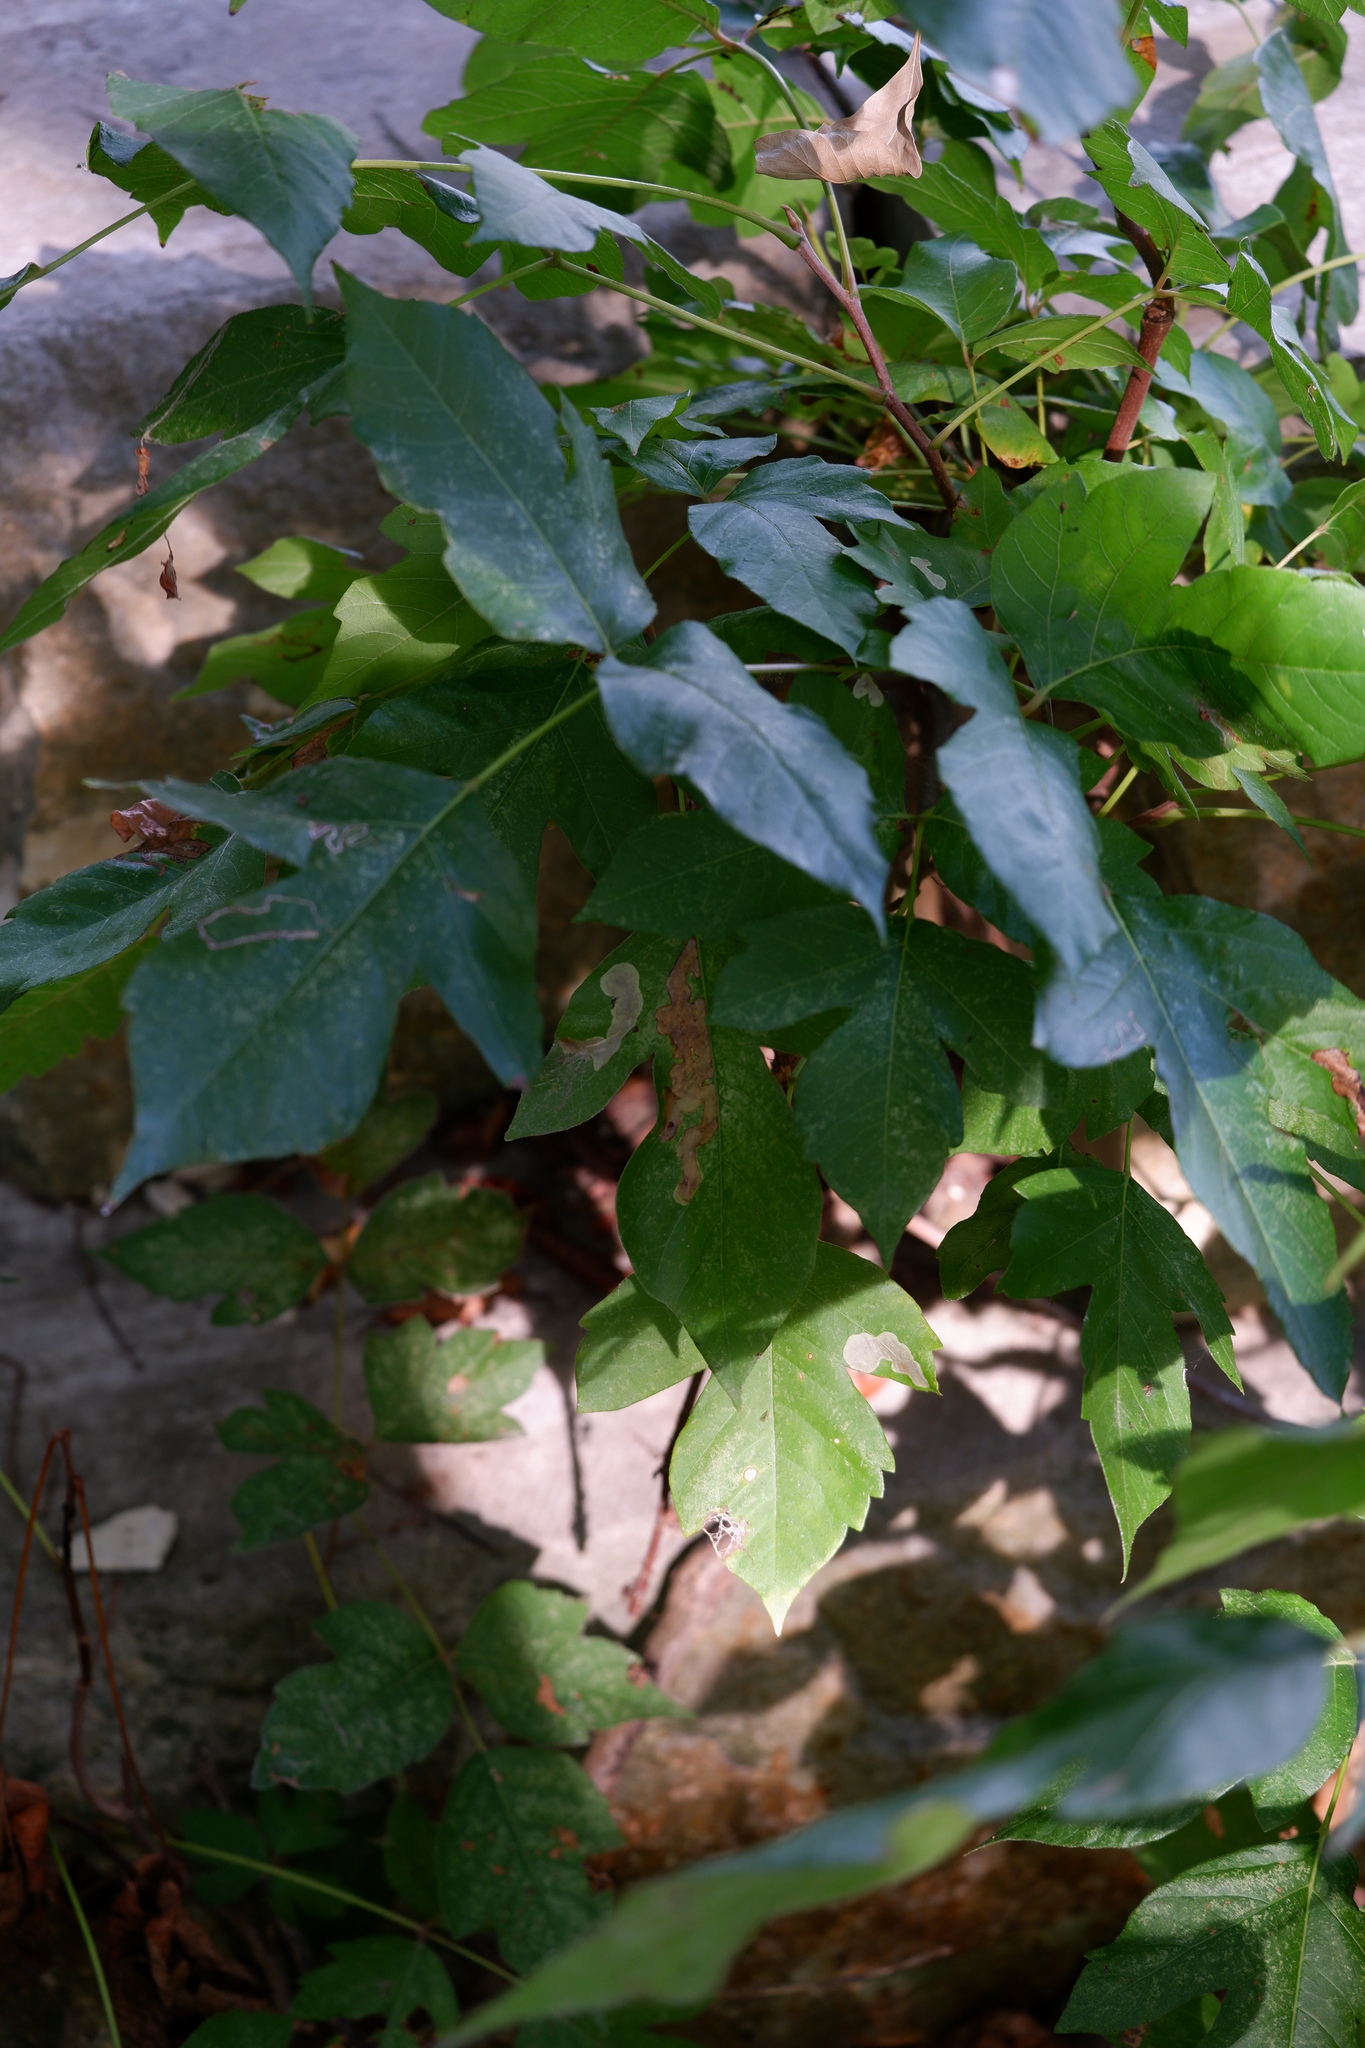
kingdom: Animalia
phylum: Arthropoda
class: Insecta
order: Lepidoptera
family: Gracillariidae
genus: Cameraria
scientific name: Cameraria guttifinitella
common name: Poison ivy leaf-miner moth
